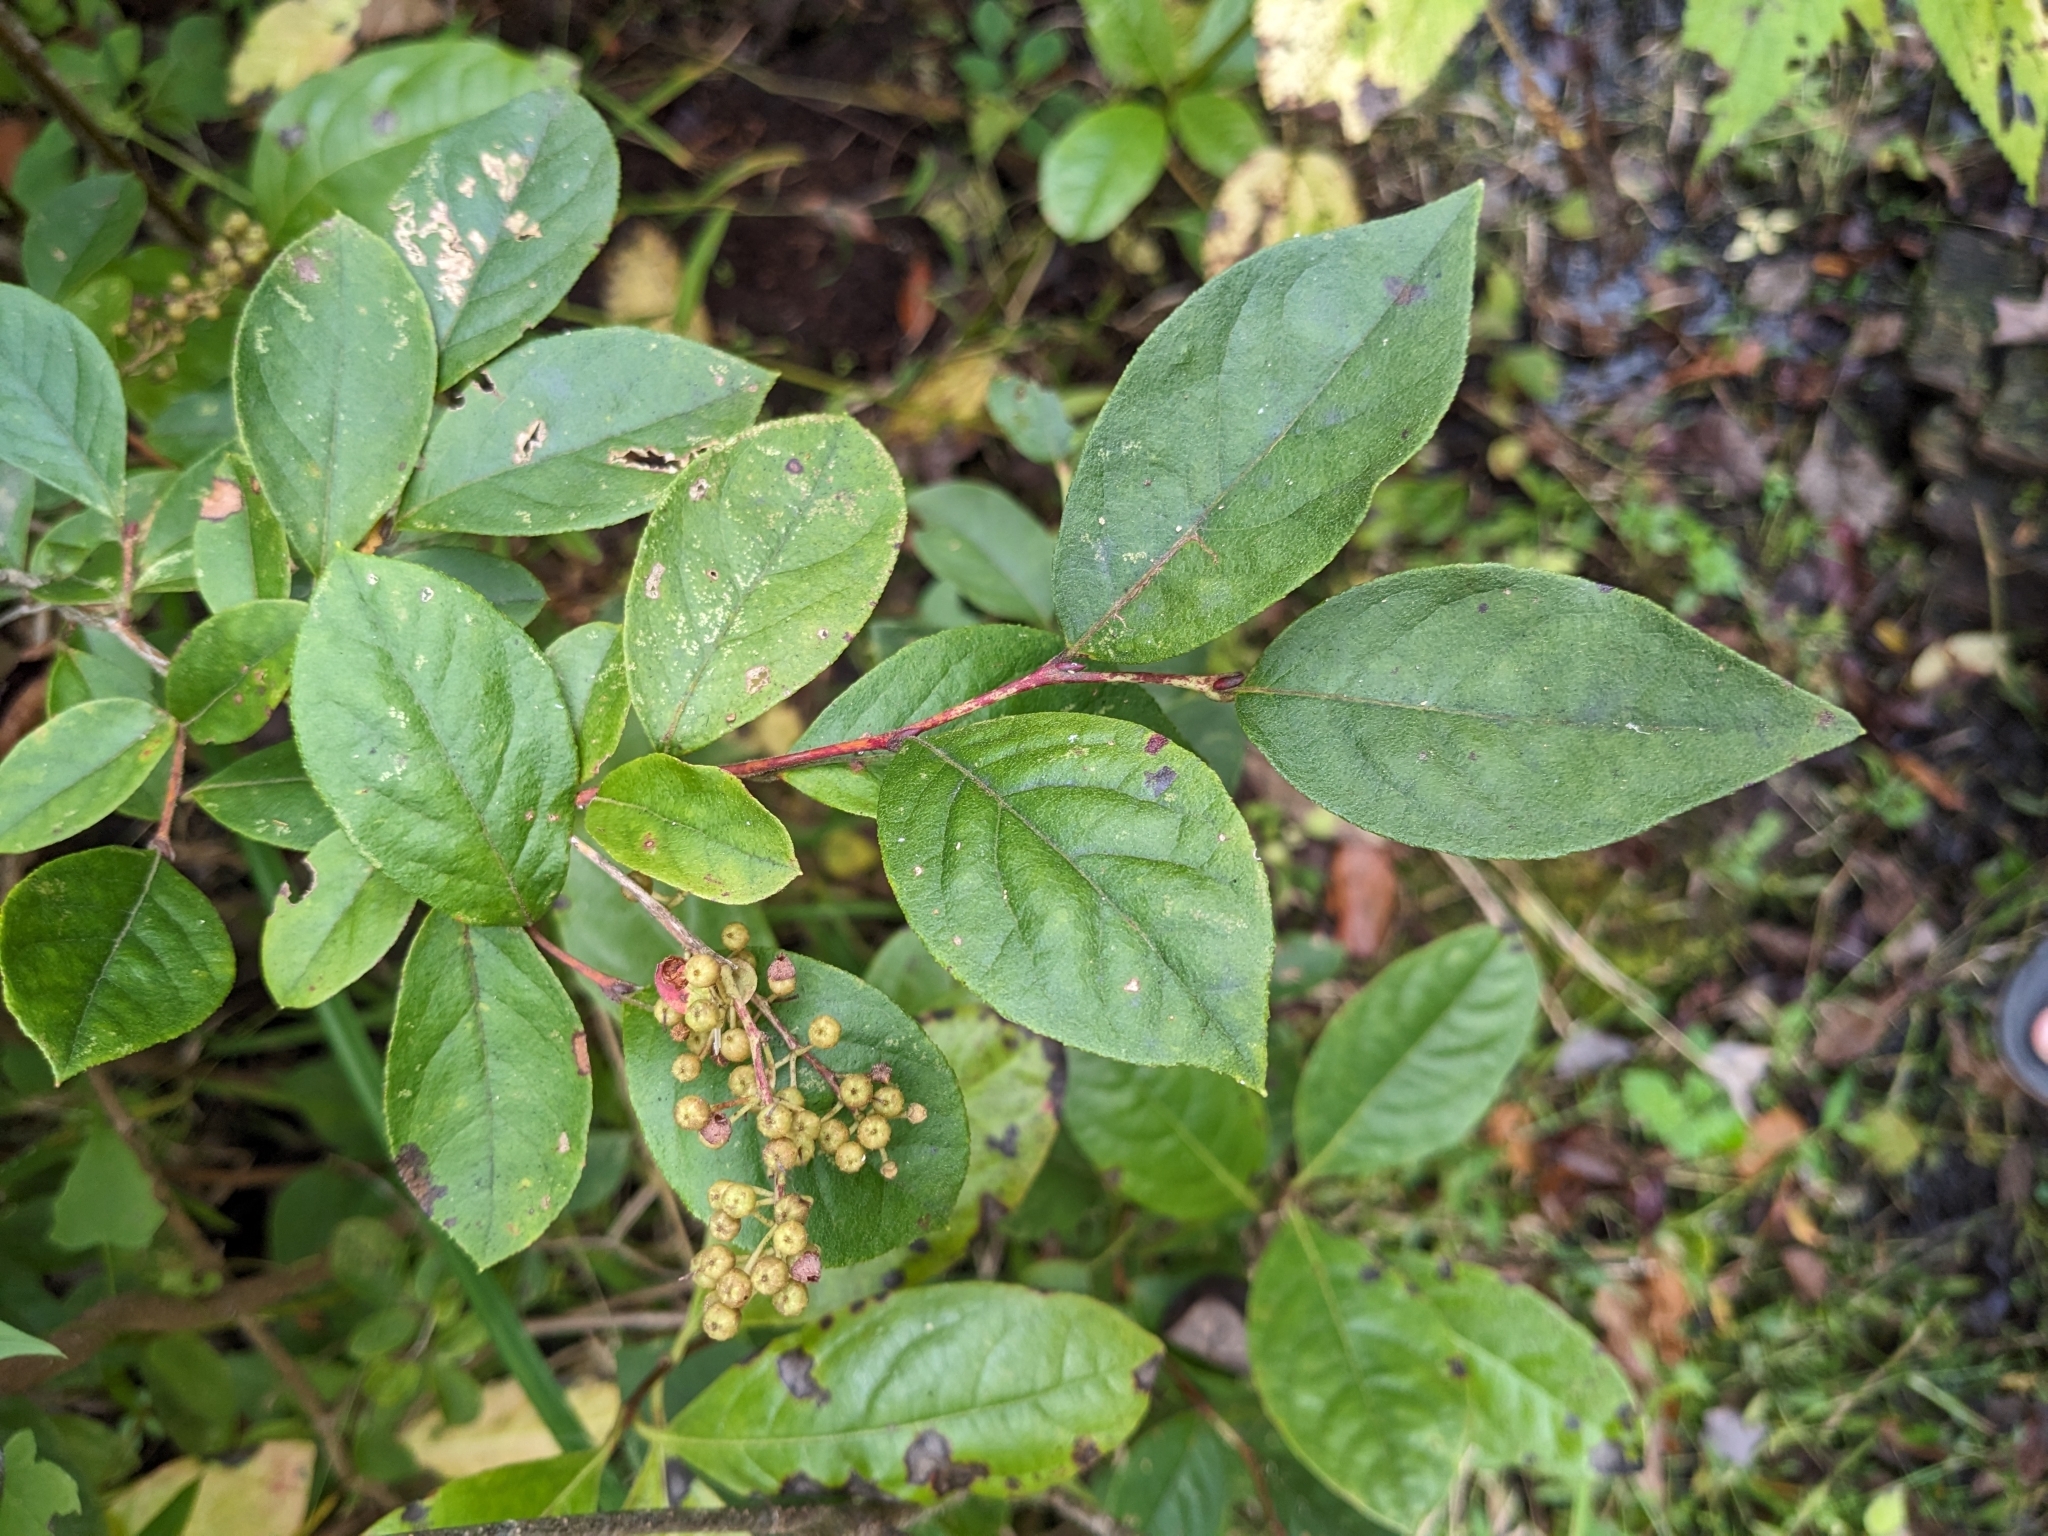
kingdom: Plantae
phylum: Tracheophyta
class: Magnoliopsida
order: Ericales
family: Ericaceae
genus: Lyonia
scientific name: Lyonia ligustrina
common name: Maleberry
